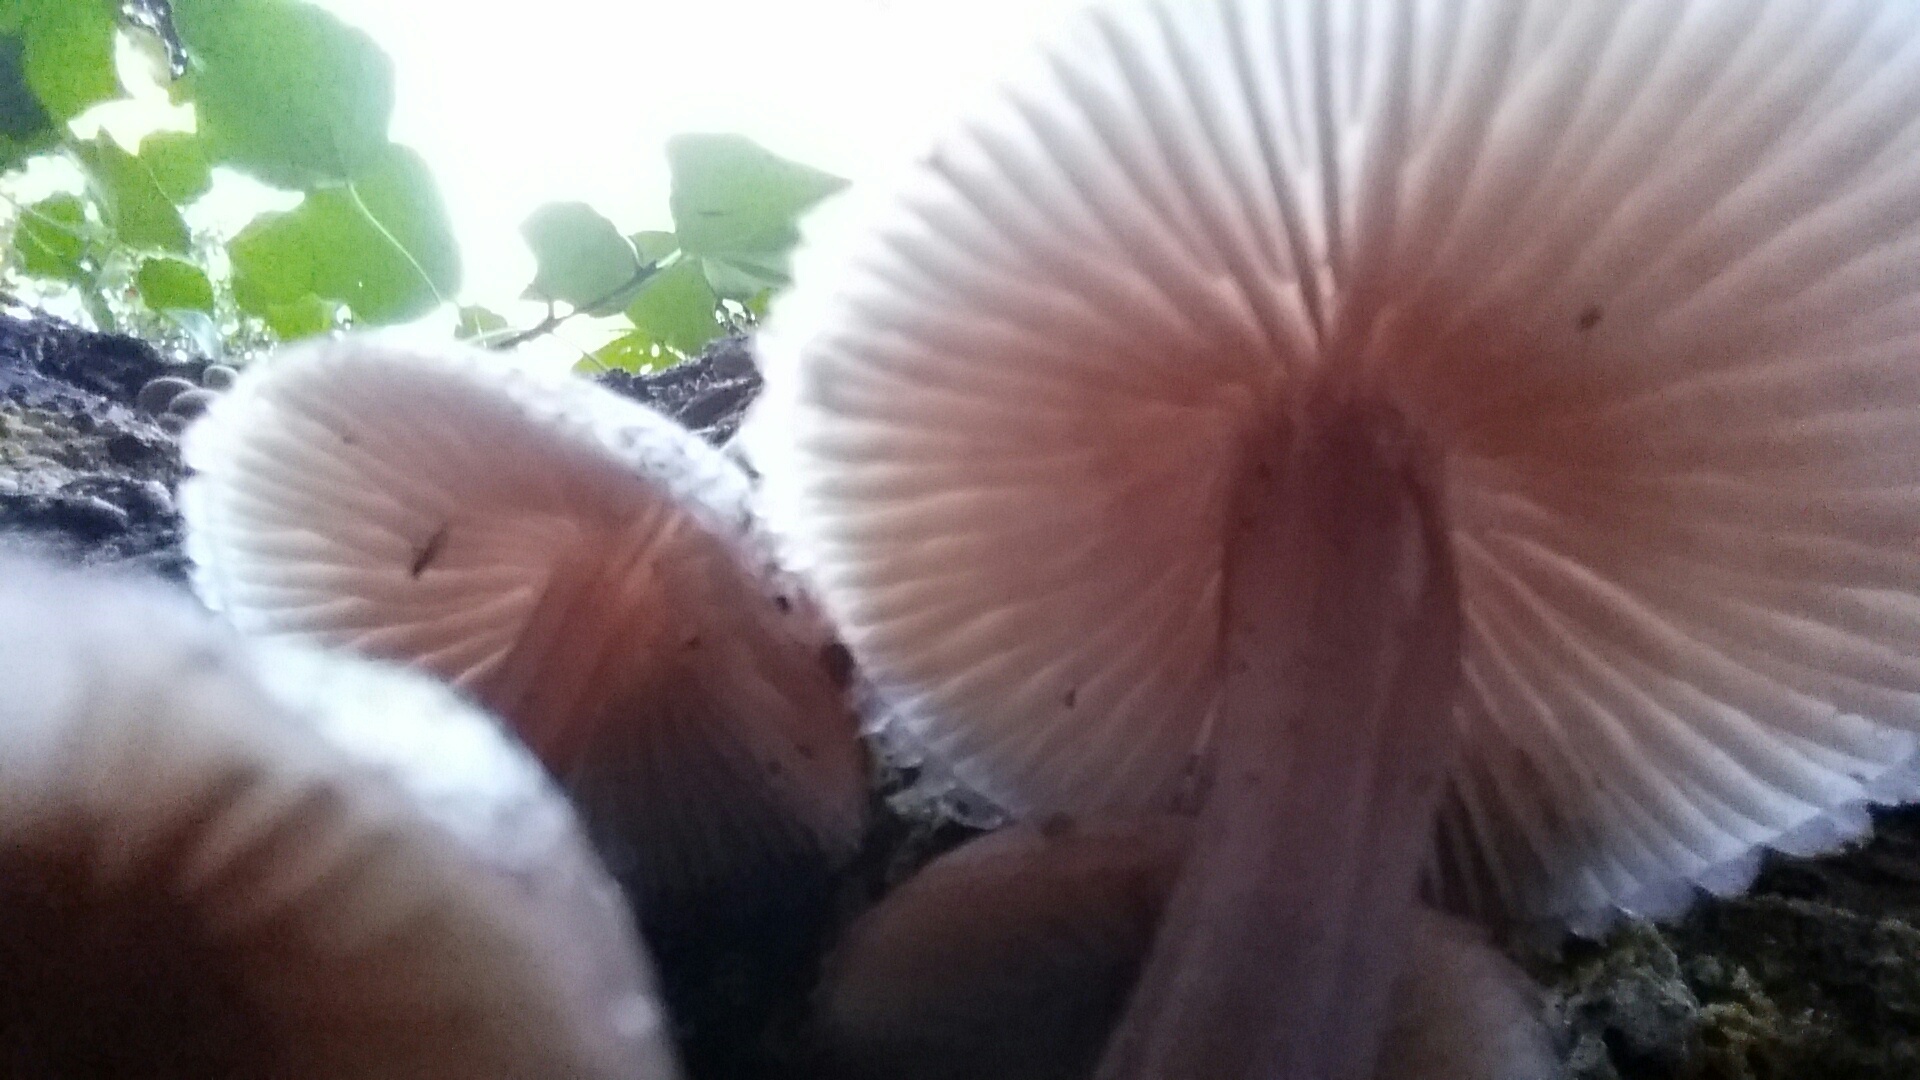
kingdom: Fungi
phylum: Basidiomycota
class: Agaricomycetes
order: Agaricales
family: Mycenaceae
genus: Mycena
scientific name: Mycena haematopus
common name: Burgundydrop bonnet
